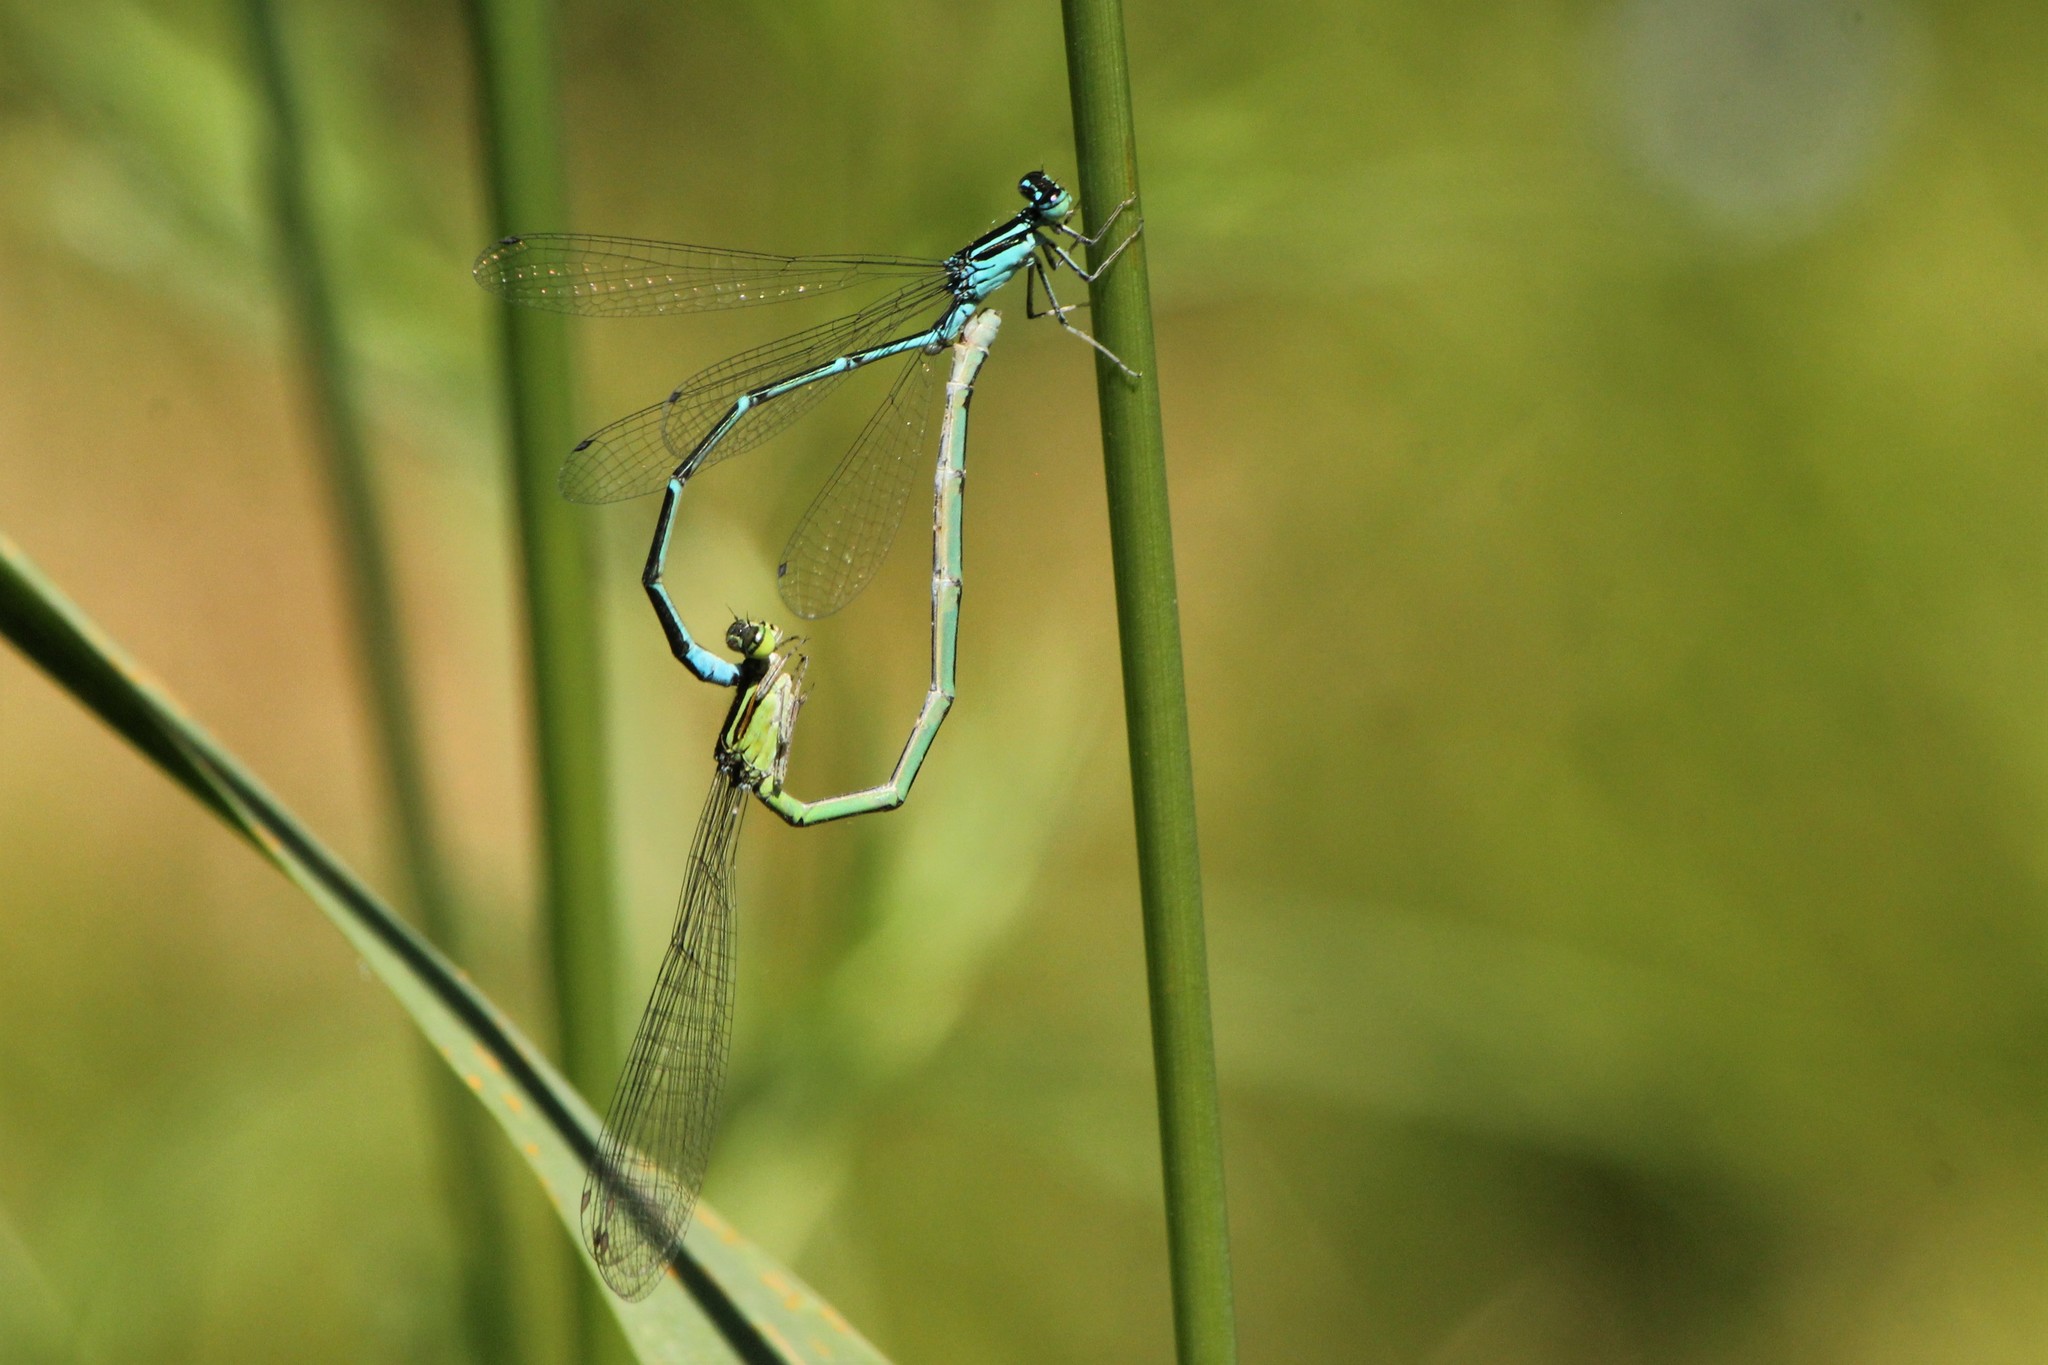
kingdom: Animalia
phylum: Arthropoda
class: Insecta
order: Odonata
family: Coenagrionidae
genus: Enallagma
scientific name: Enallagma exsulans
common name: Stream bluet
